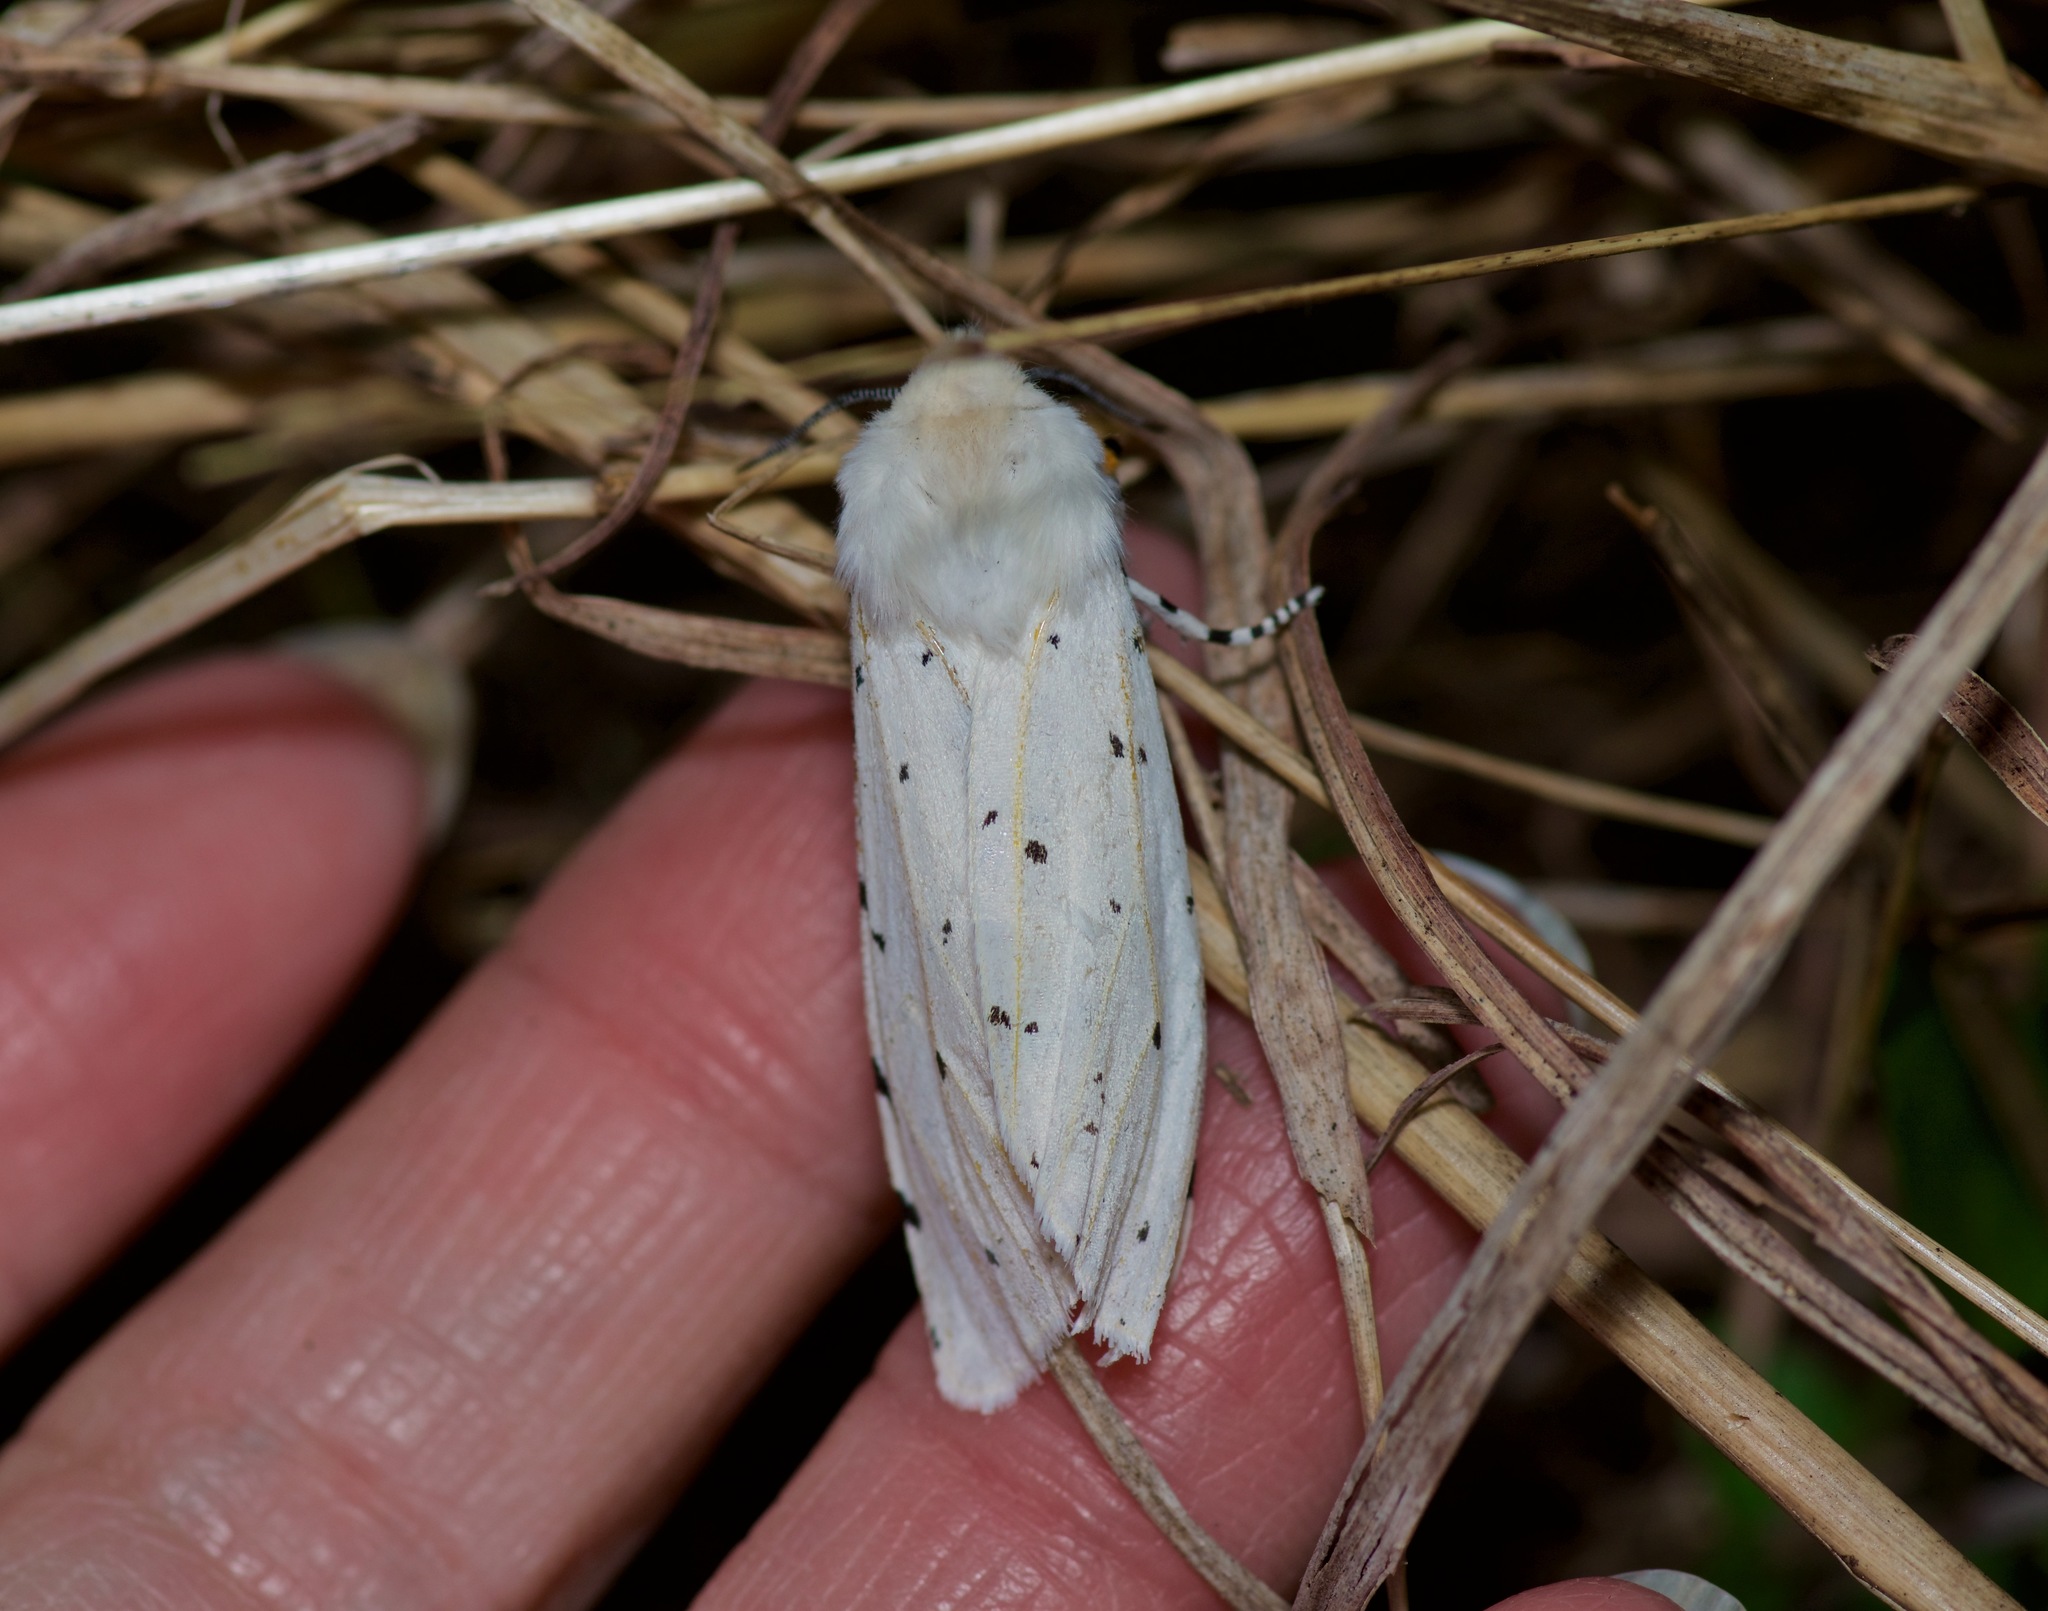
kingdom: Animalia
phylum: Arthropoda
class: Insecta
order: Lepidoptera
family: Erebidae
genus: Estigmene
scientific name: Estigmene acrea
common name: Salt marsh moth
